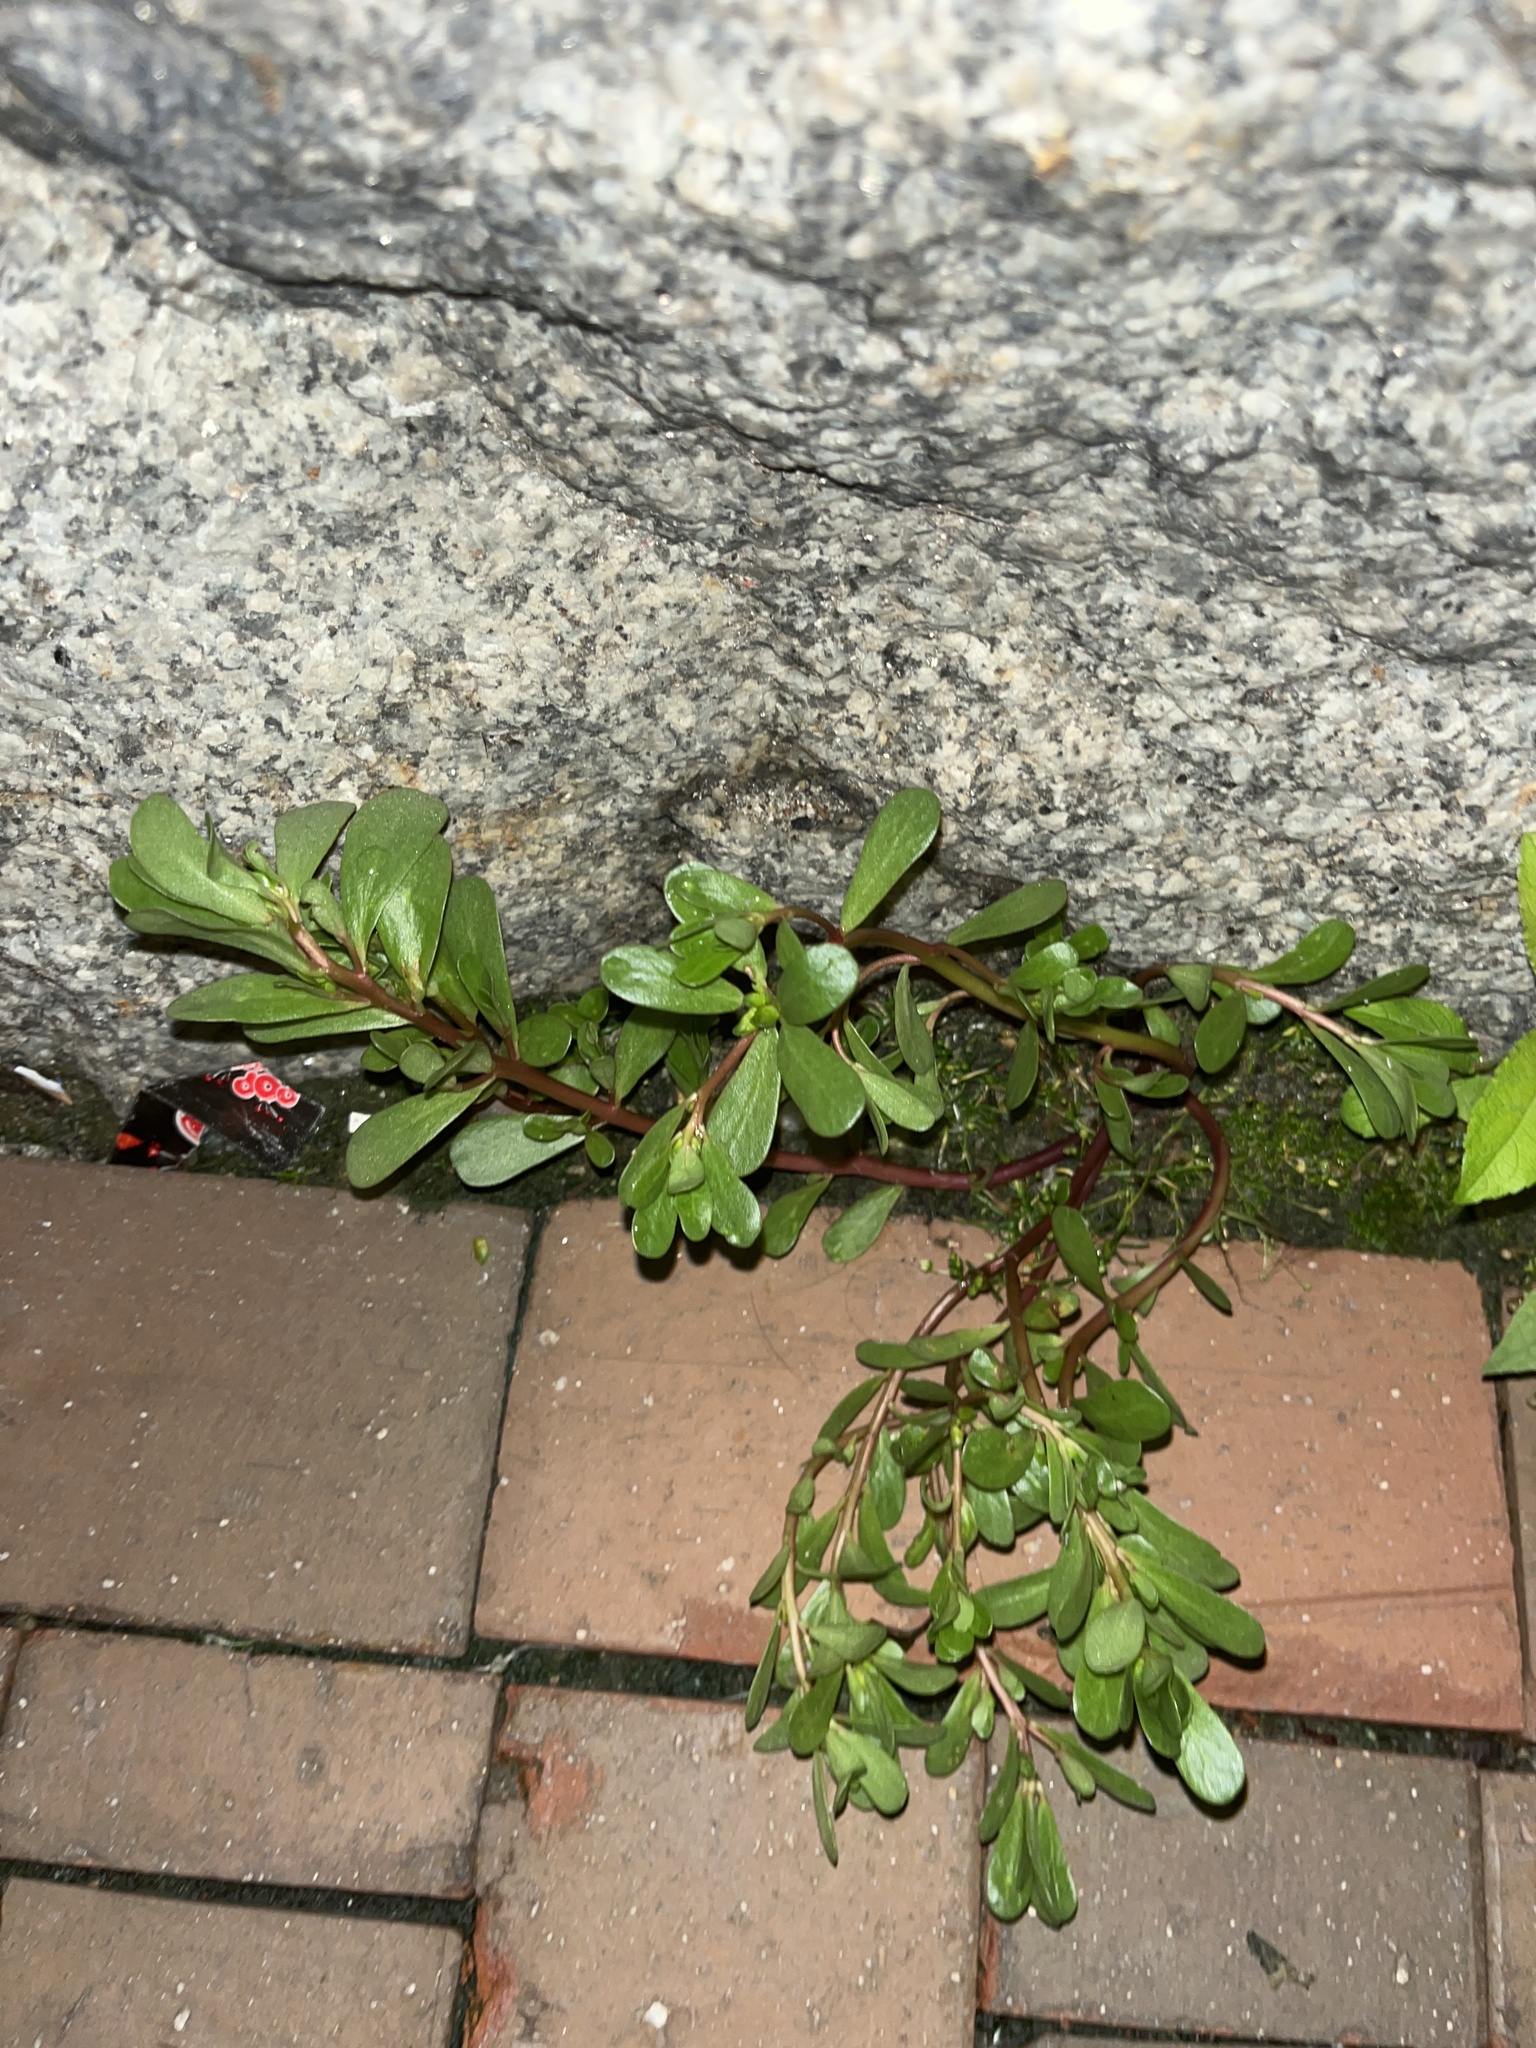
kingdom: Plantae
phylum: Tracheophyta
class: Magnoliopsida
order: Caryophyllales
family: Portulacaceae
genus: Portulaca
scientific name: Portulaca oleracea
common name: Common purslane
